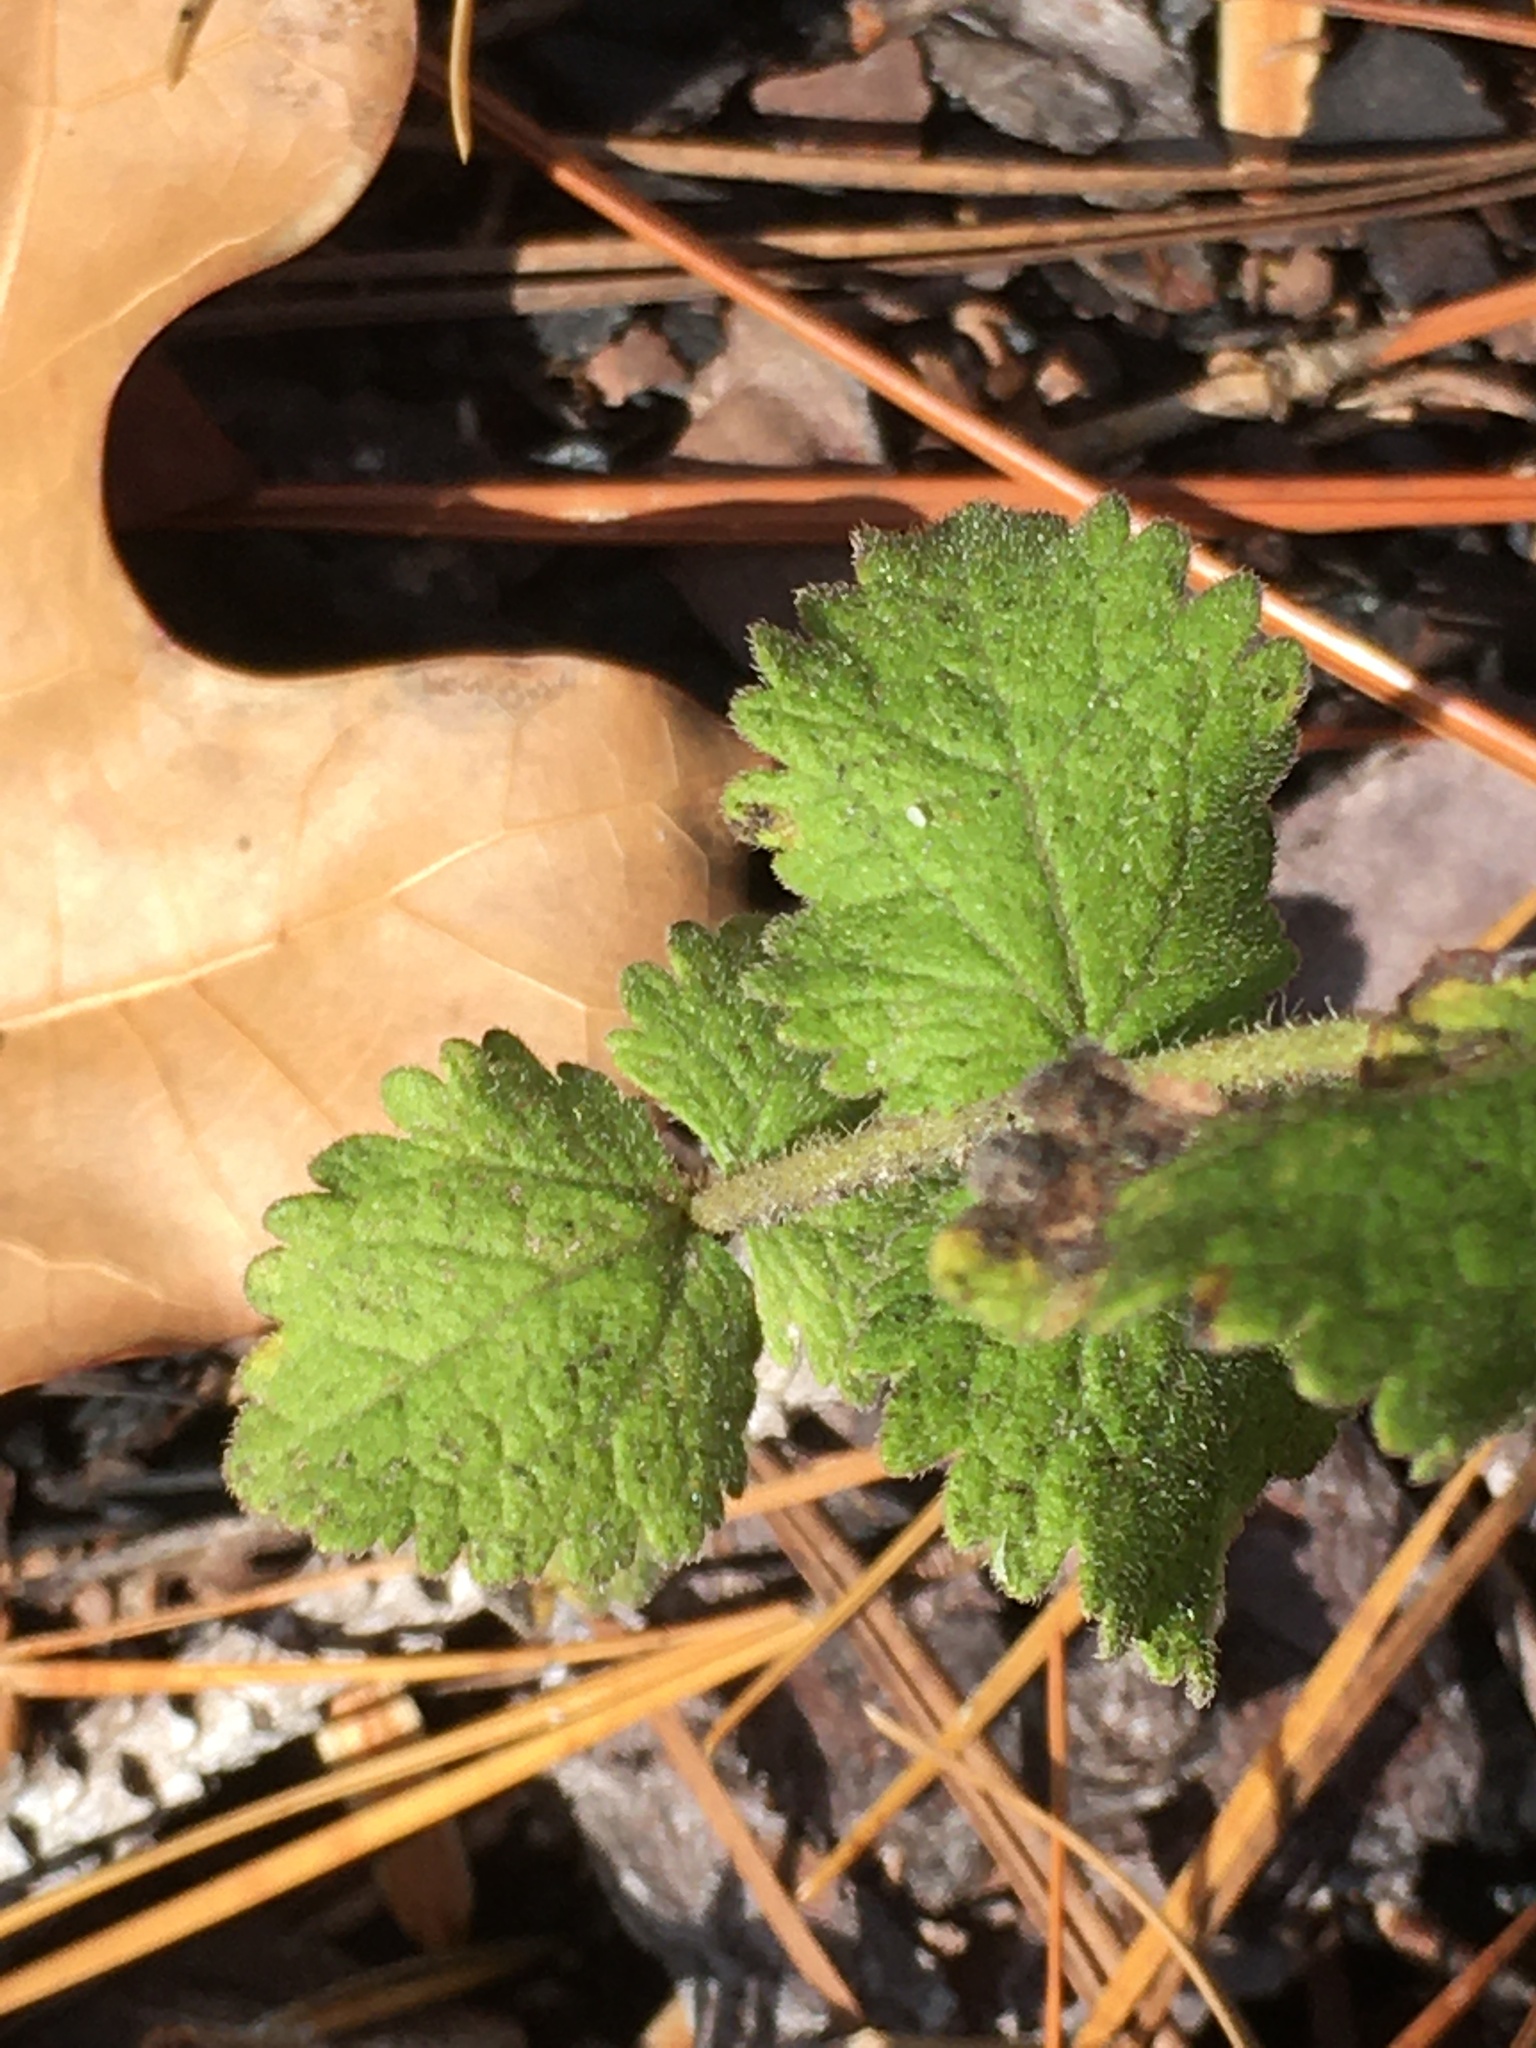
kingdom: Plantae
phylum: Tracheophyta
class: Magnoliopsida
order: Asterales
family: Asteraceae
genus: Eupatorium
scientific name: Eupatorium rotundifolium
